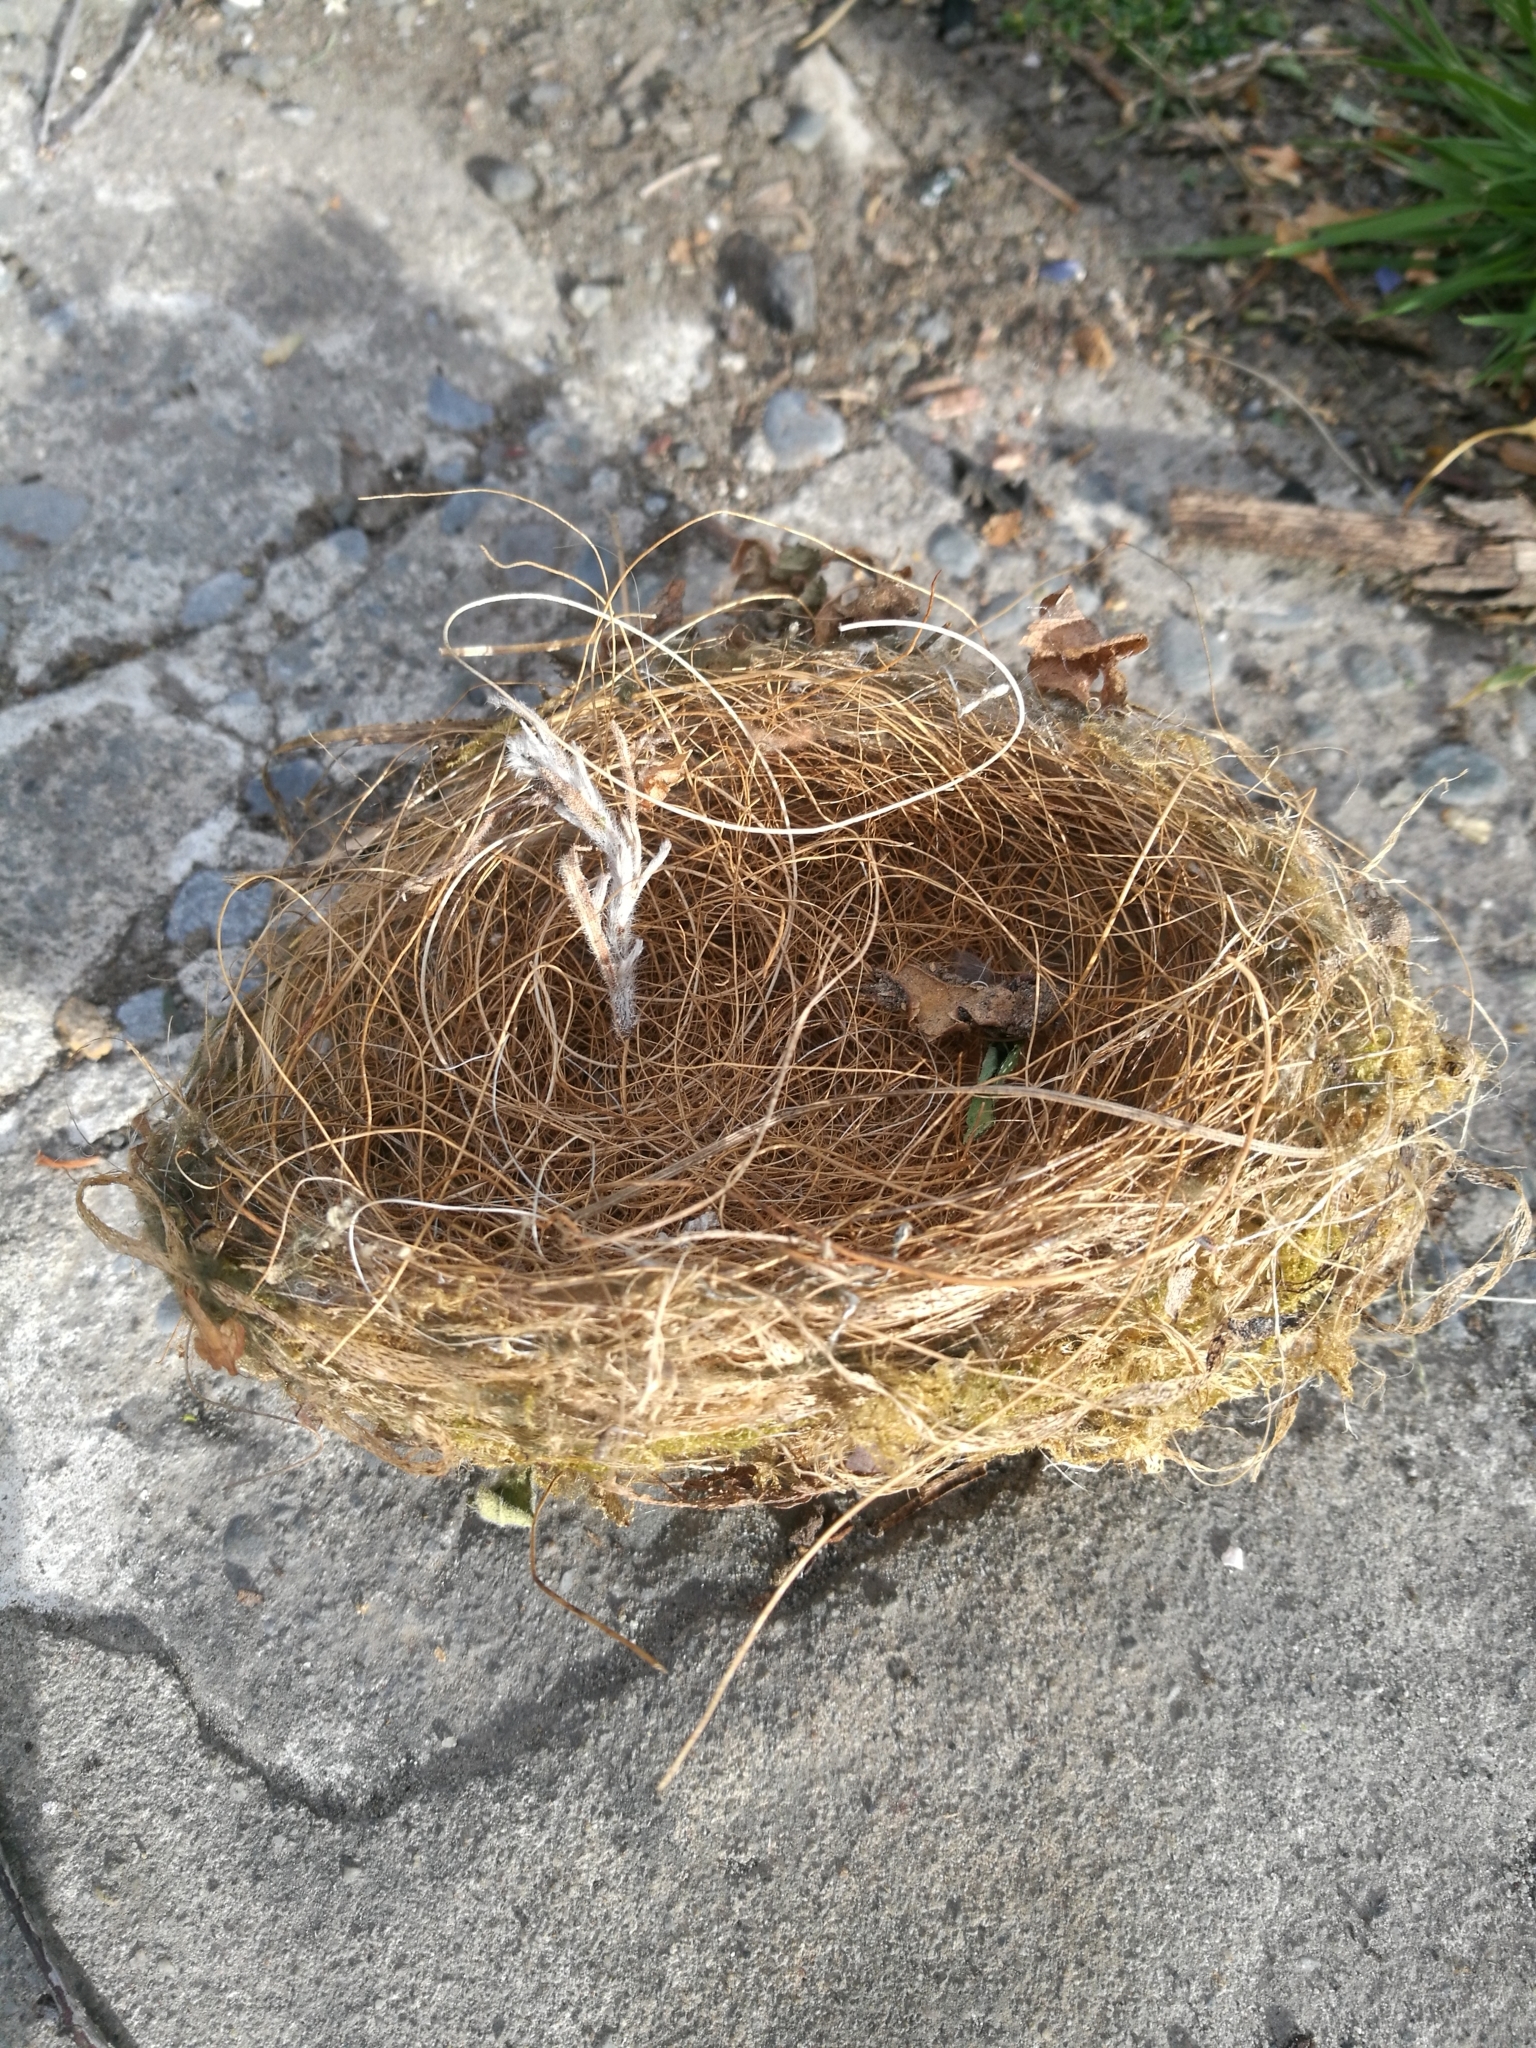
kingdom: Animalia
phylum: Chordata
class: Aves
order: Passeriformes
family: Zosteropidae
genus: Zosterops
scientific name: Zosterops lateralis
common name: Silvereye
